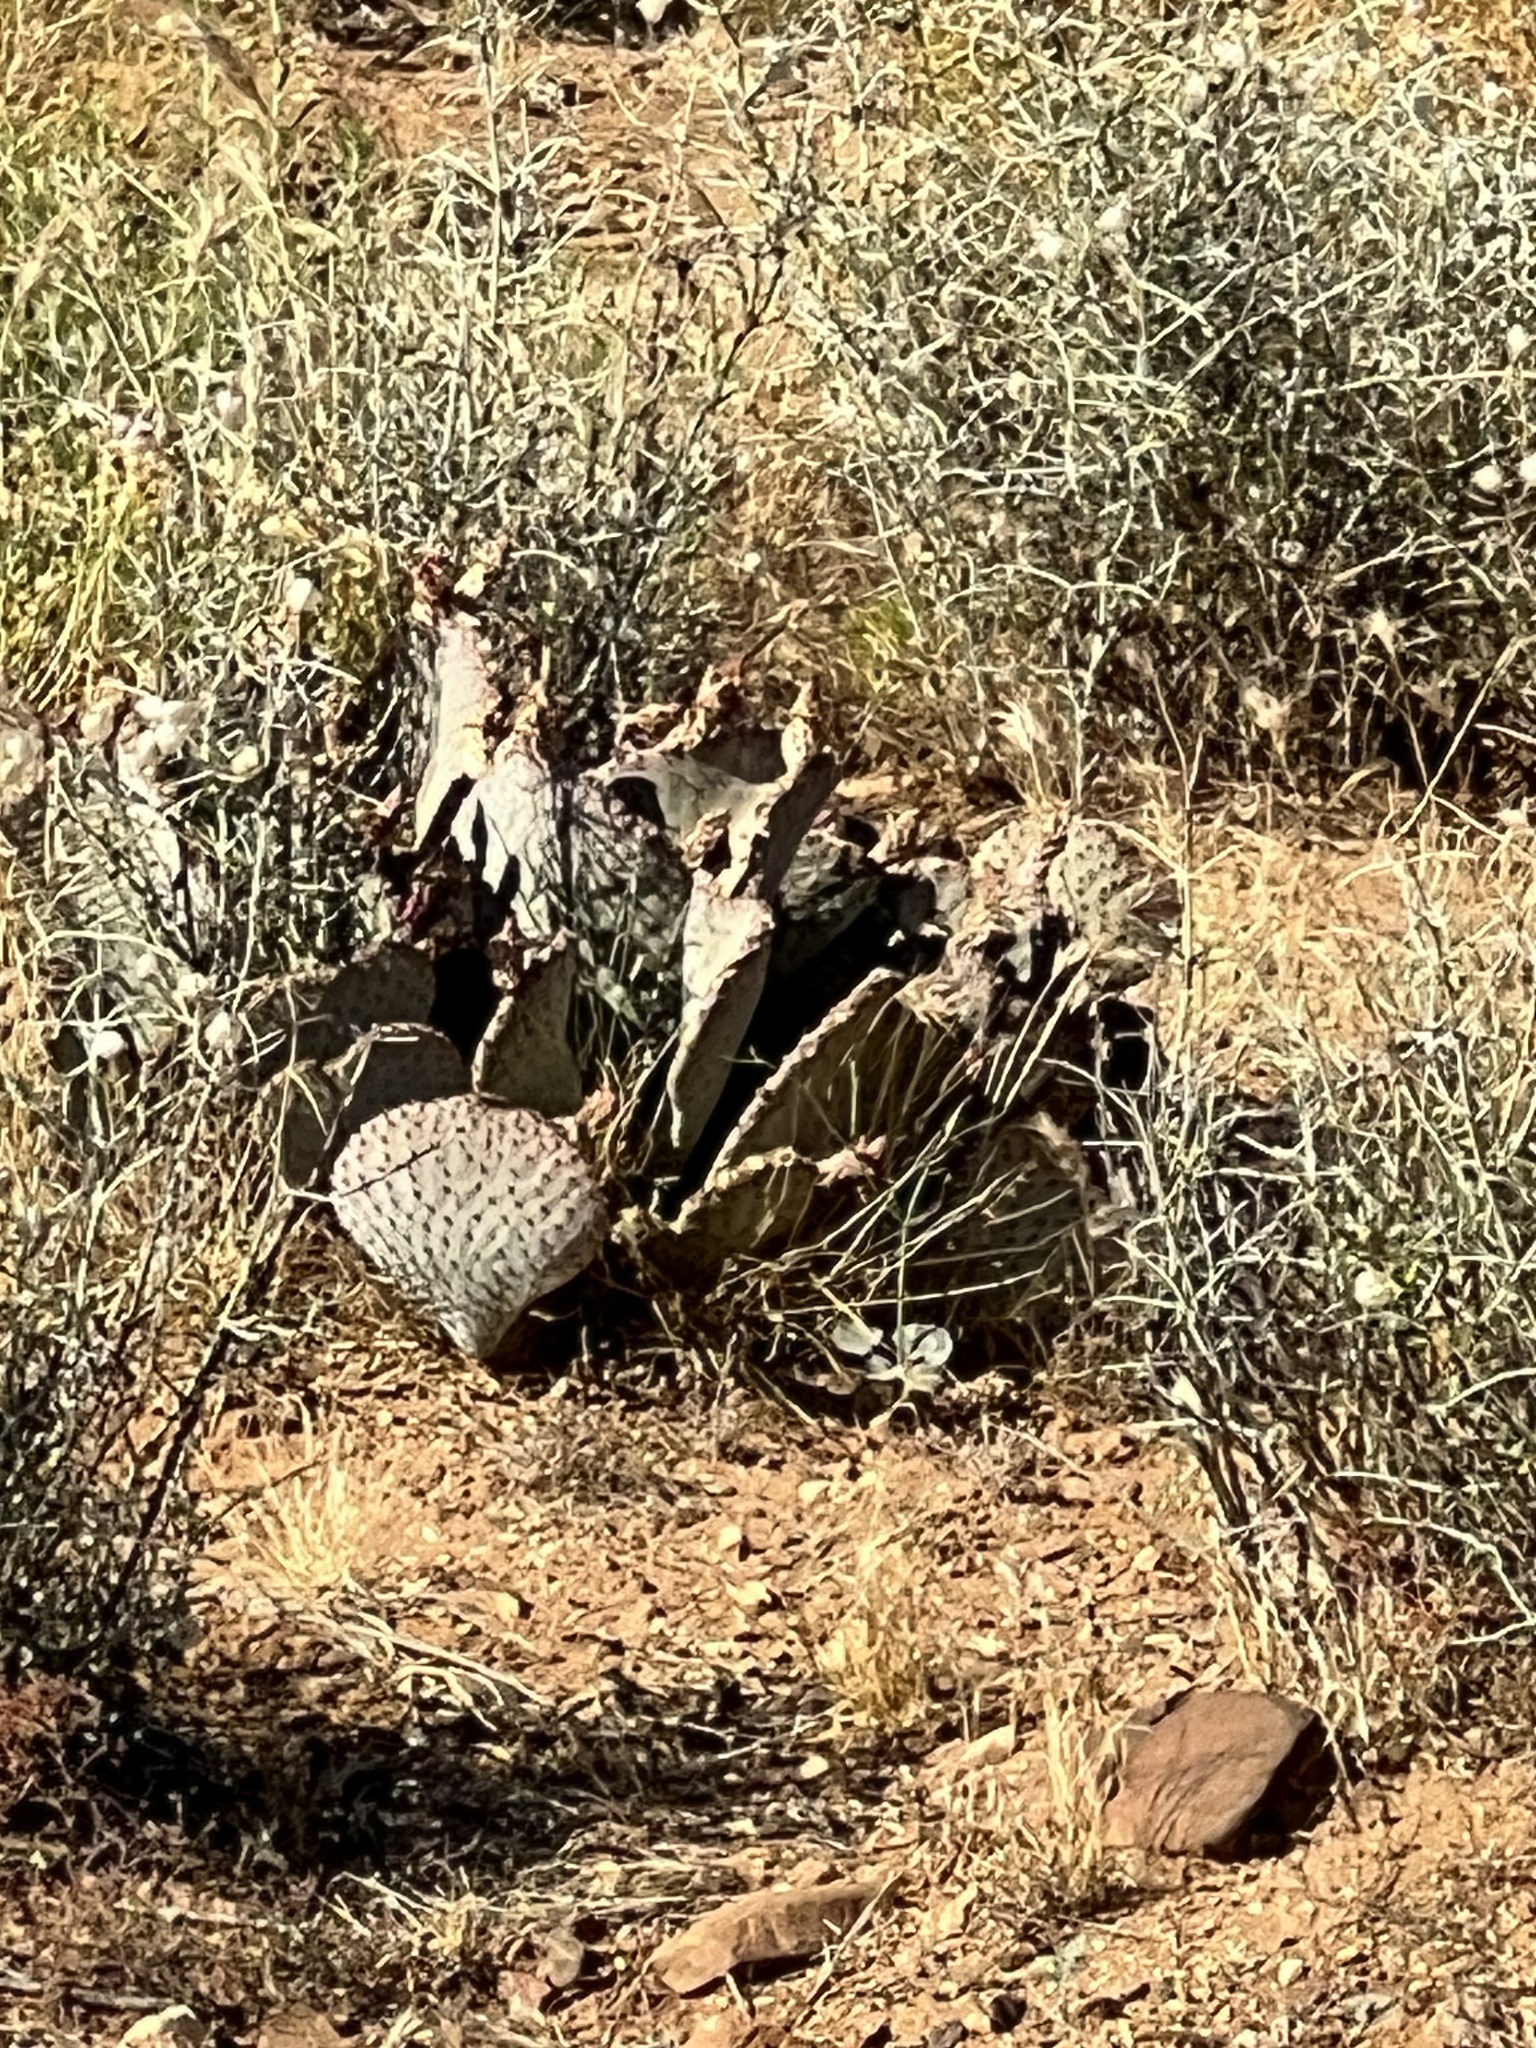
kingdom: Plantae
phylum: Tracheophyta
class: Magnoliopsida
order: Caryophyllales
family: Cactaceae
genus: Opuntia
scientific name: Opuntia basilaris
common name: Beavertail prickly-pear
